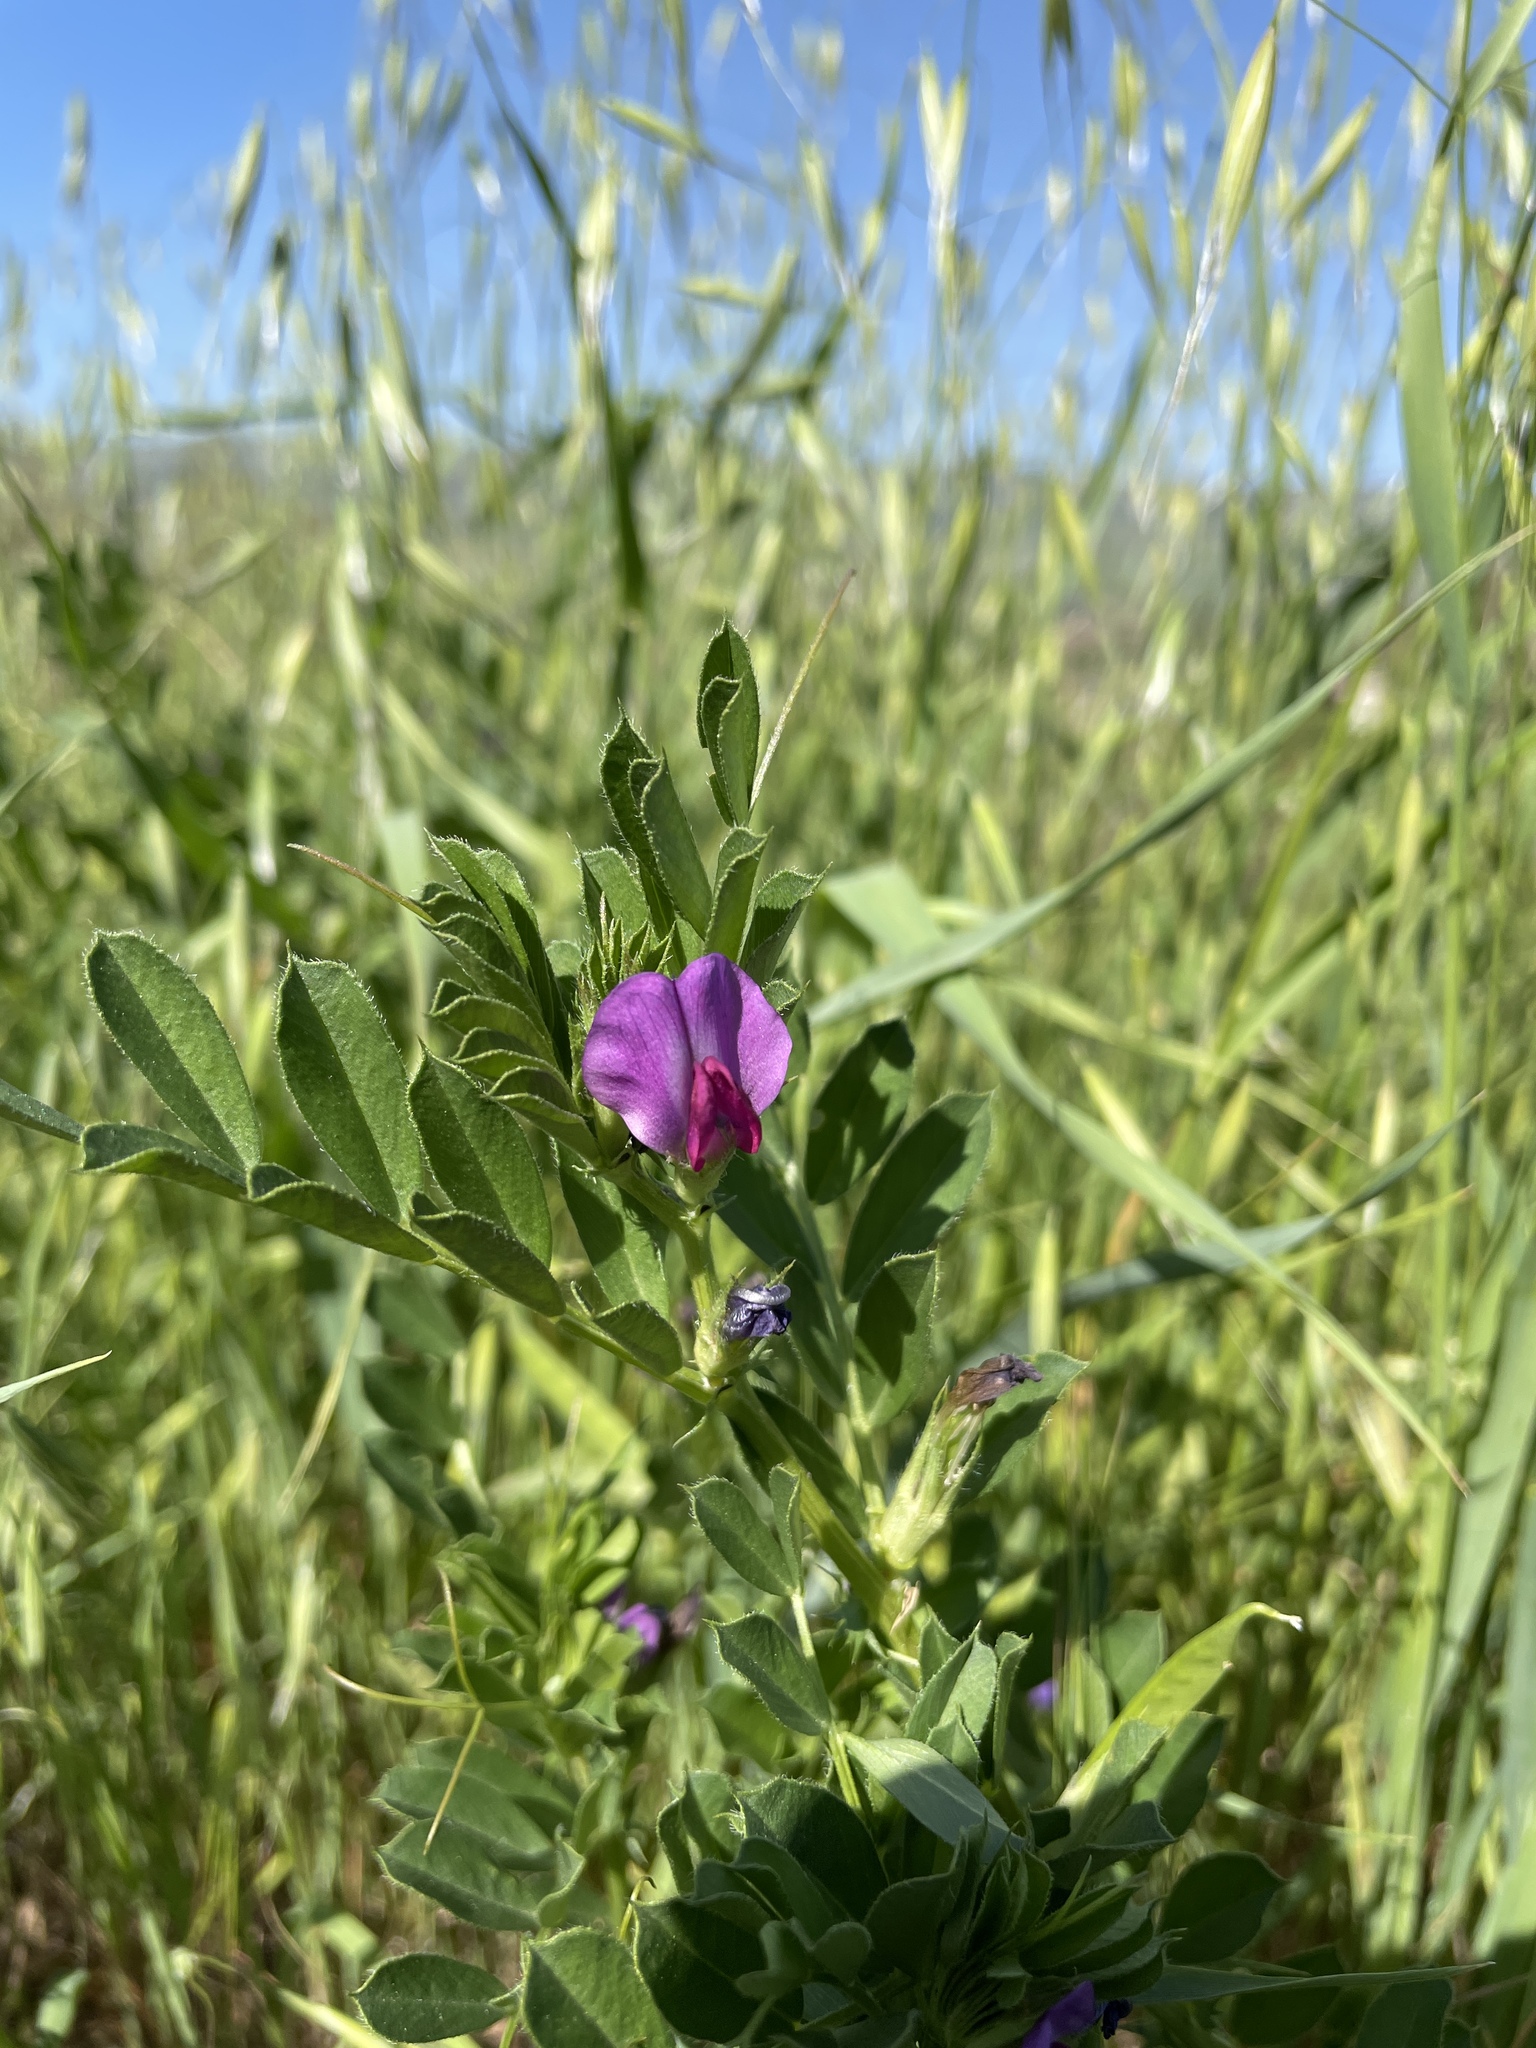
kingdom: Plantae
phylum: Tracheophyta
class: Magnoliopsida
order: Fabales
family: Fabaceae
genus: Vicia
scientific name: Vicia sativa
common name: Garden vetch
